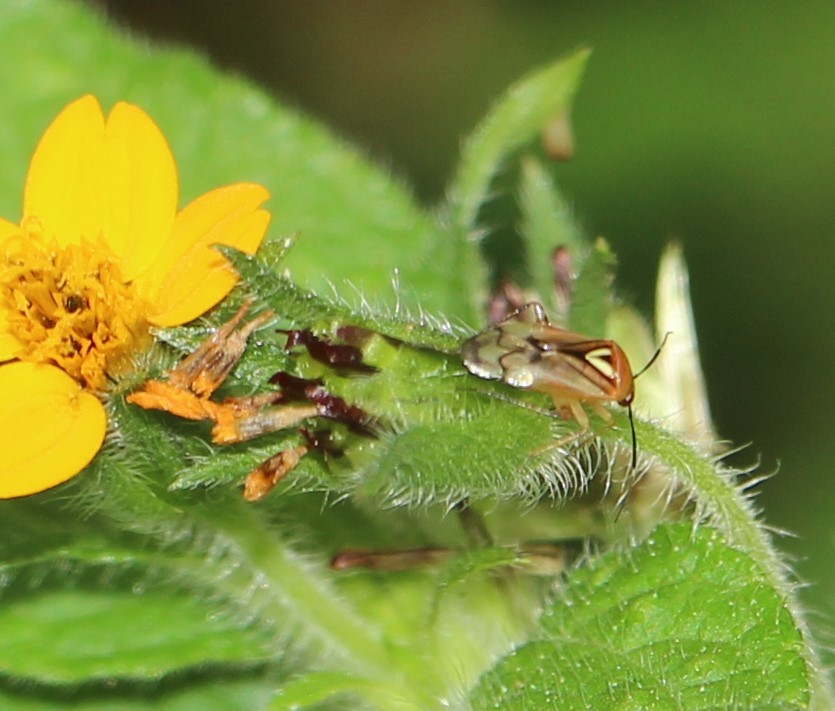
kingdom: Animalia
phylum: Arthropoda
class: Insecta
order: Hemiptera
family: Miridae
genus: Proba
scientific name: Proba vittiscutis
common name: Plant bug
